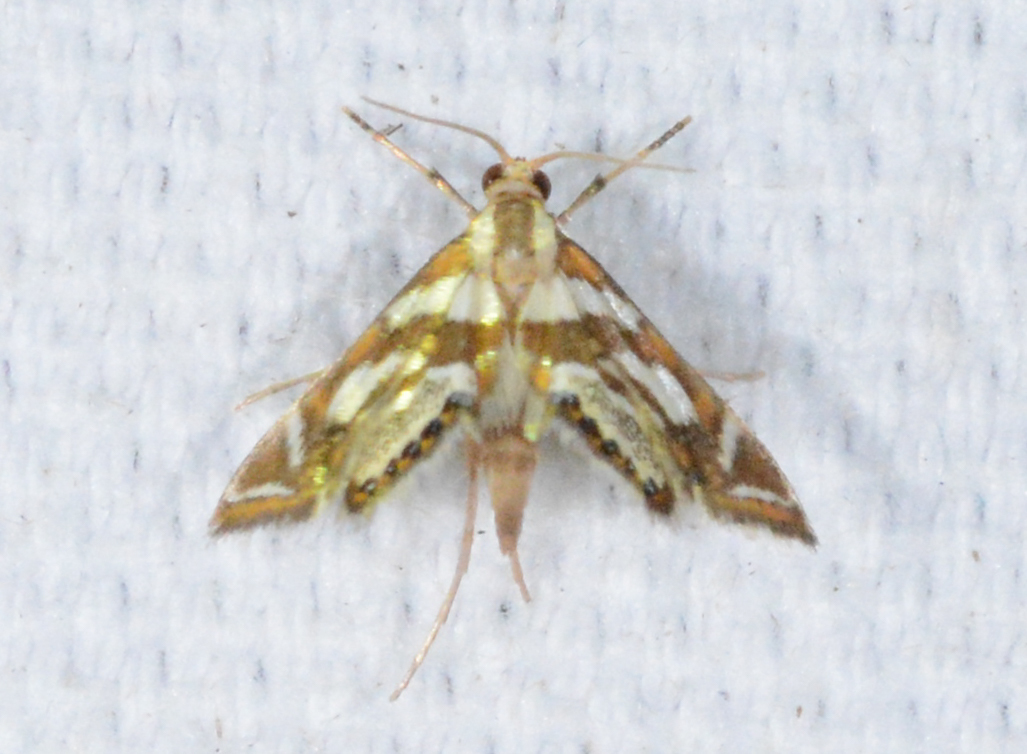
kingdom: Animalia
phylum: Arthropoda
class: Insecta
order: Lepidoptera
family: Crambidae
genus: Chrysendeton
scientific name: Chrysendeton medicinalis
